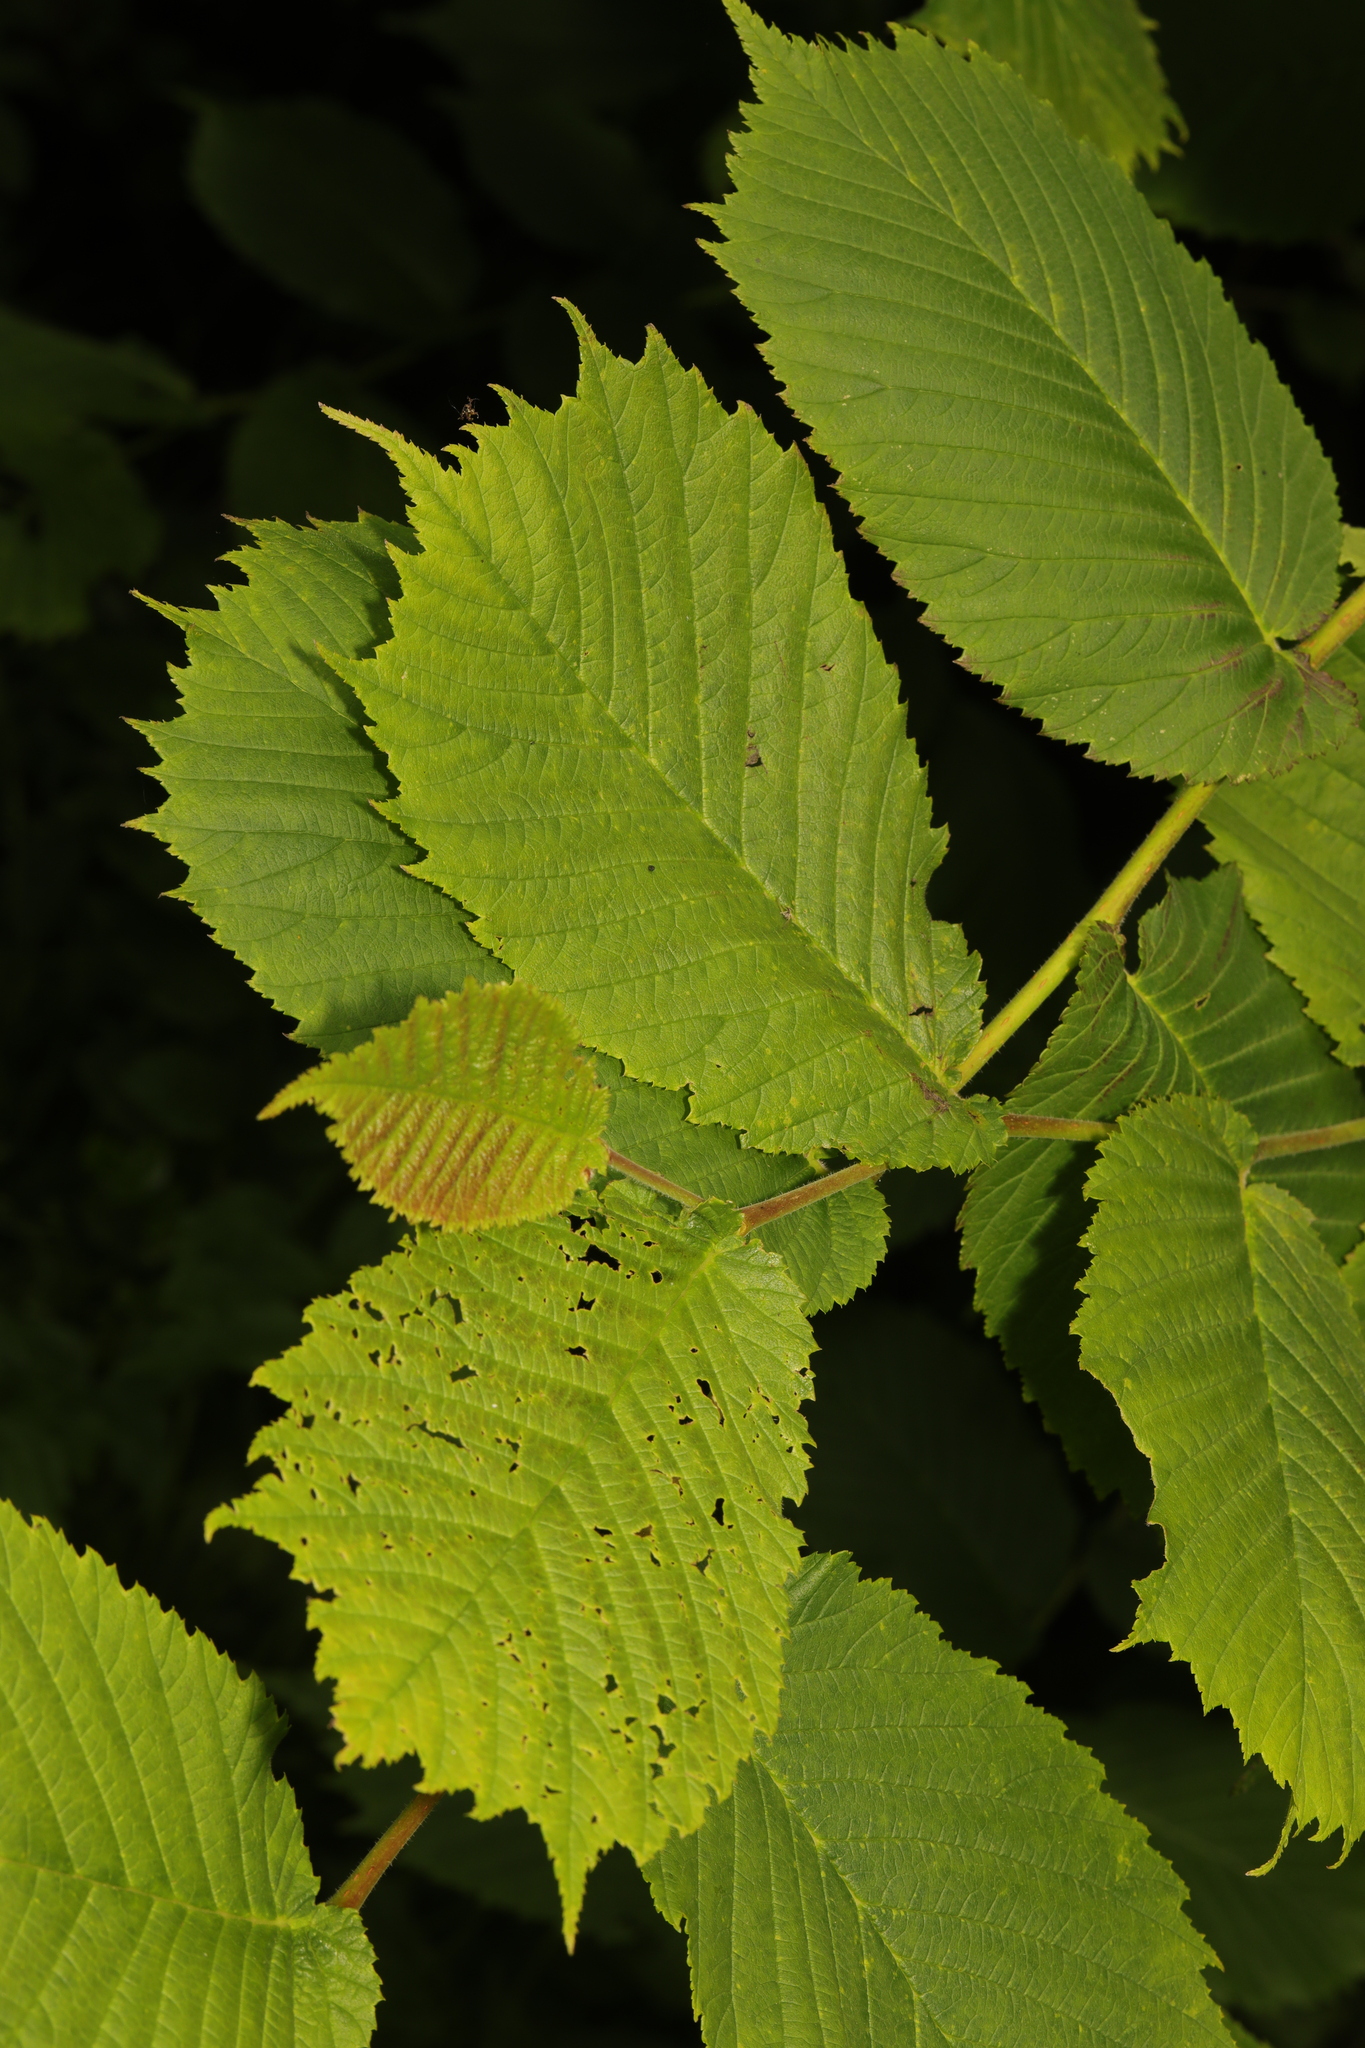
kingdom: Plantae
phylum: Tracheophyta
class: Magnoliopsida
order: Rosales
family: Ulmaceae
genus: Ulmus
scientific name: Ulmus glabra
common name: Wych elm
